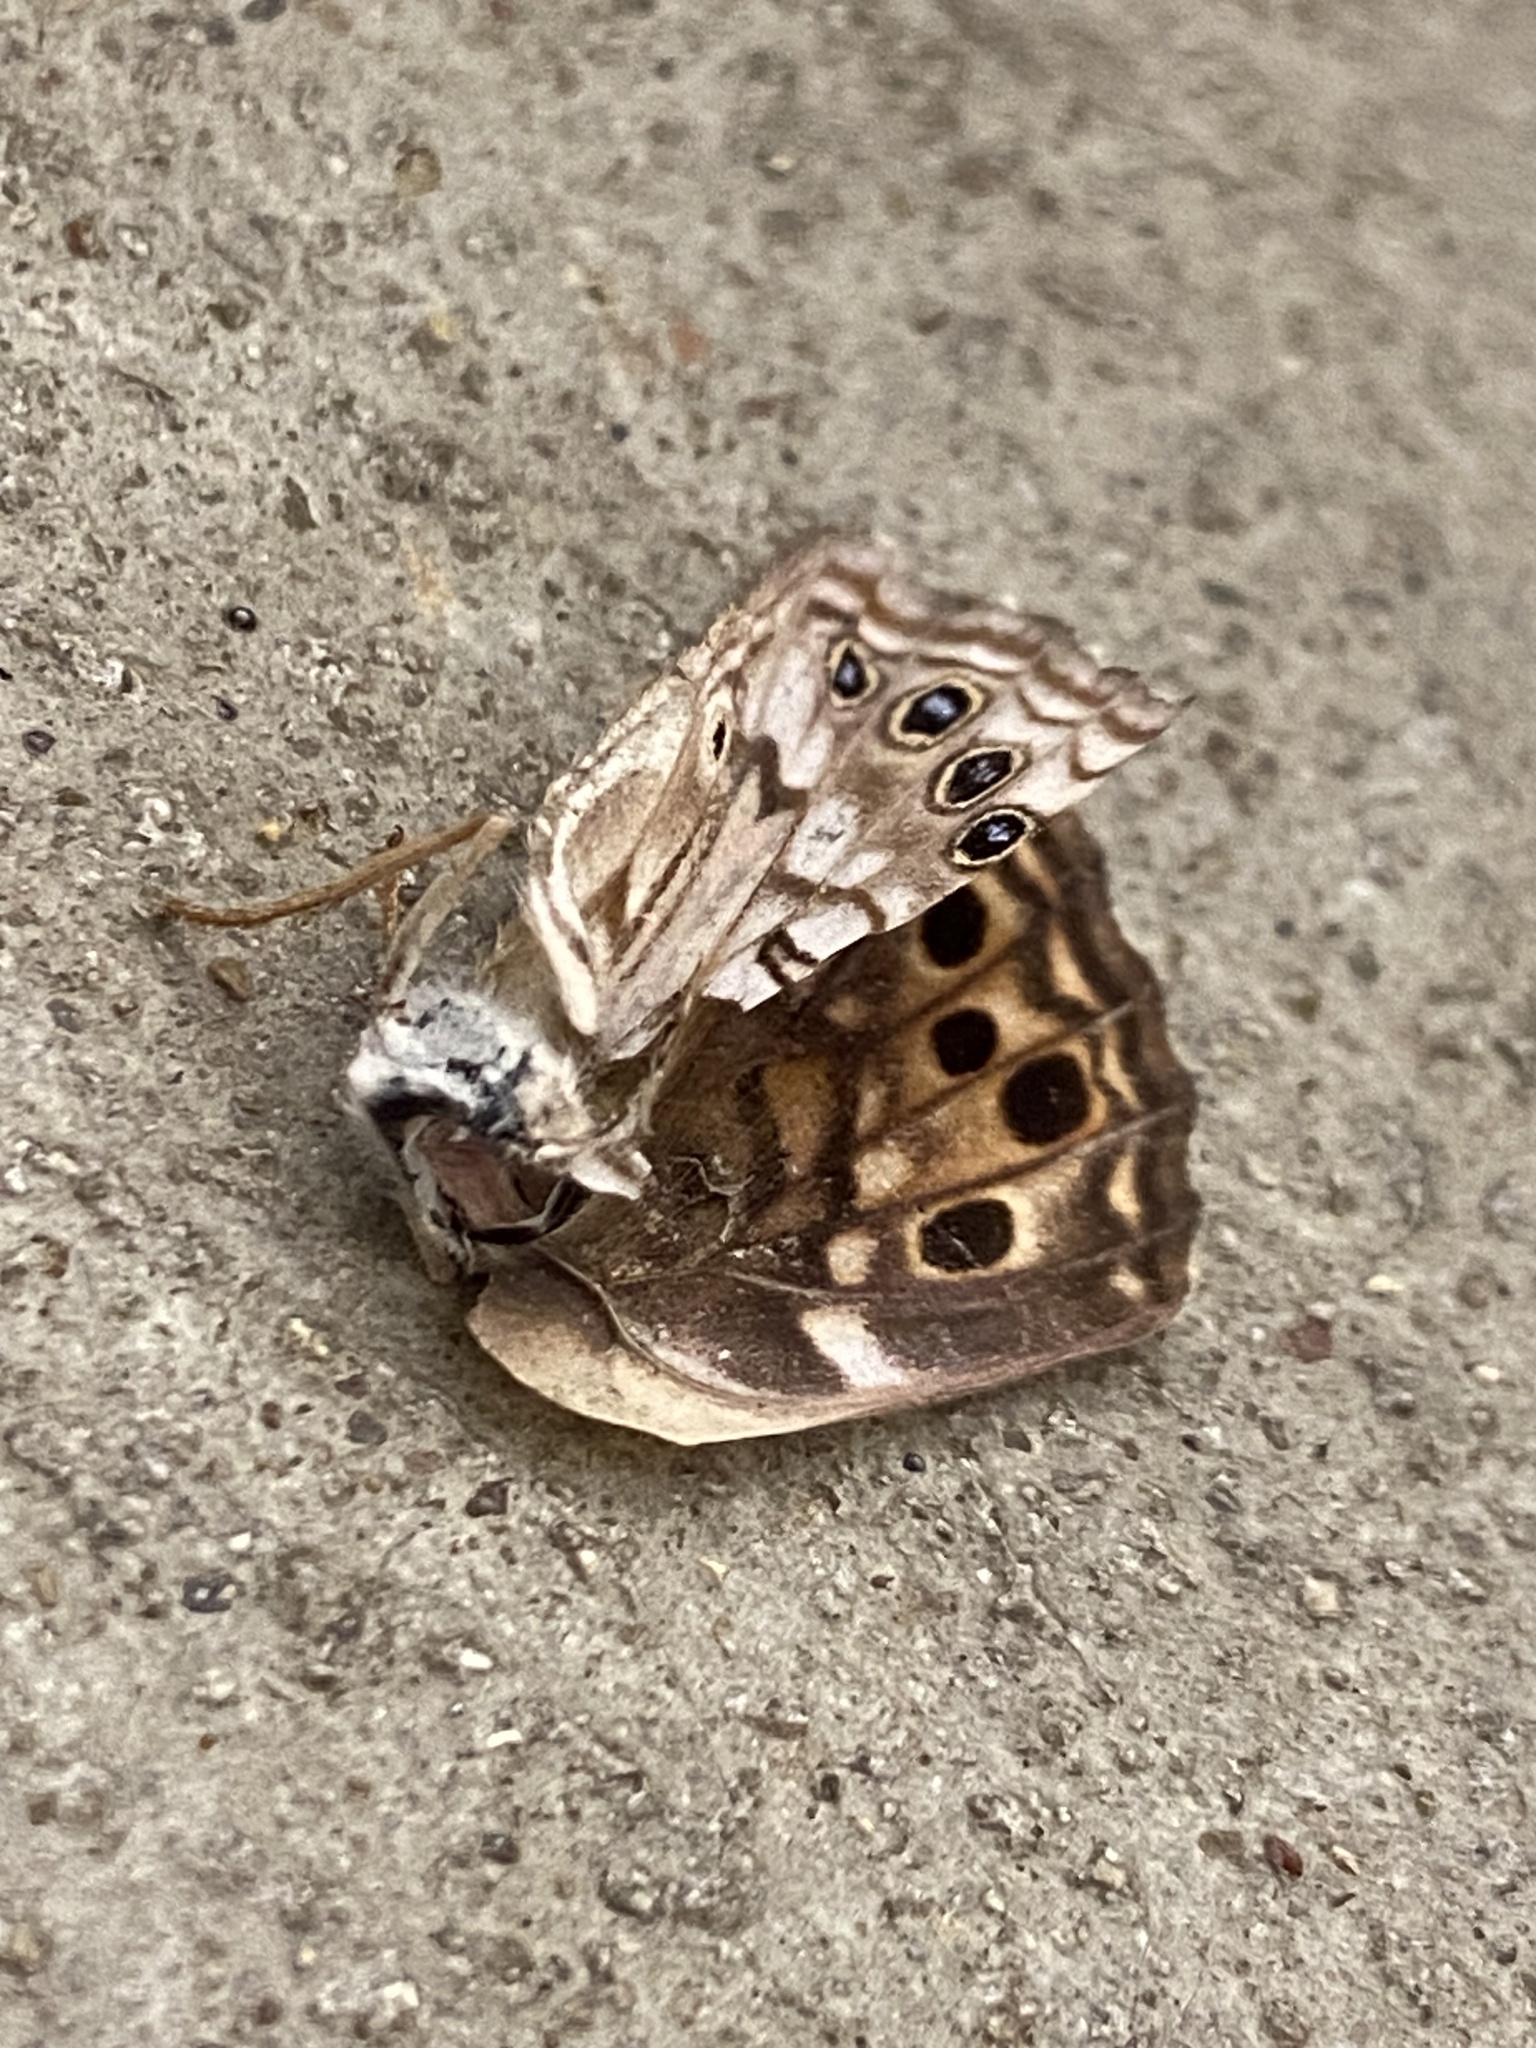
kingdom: Animalia
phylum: Arthropoda
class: Insecta
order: Lepidoptera
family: Nymphalidae
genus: Asterocampa
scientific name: Asterocampa celtis
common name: Hackberry emperor
